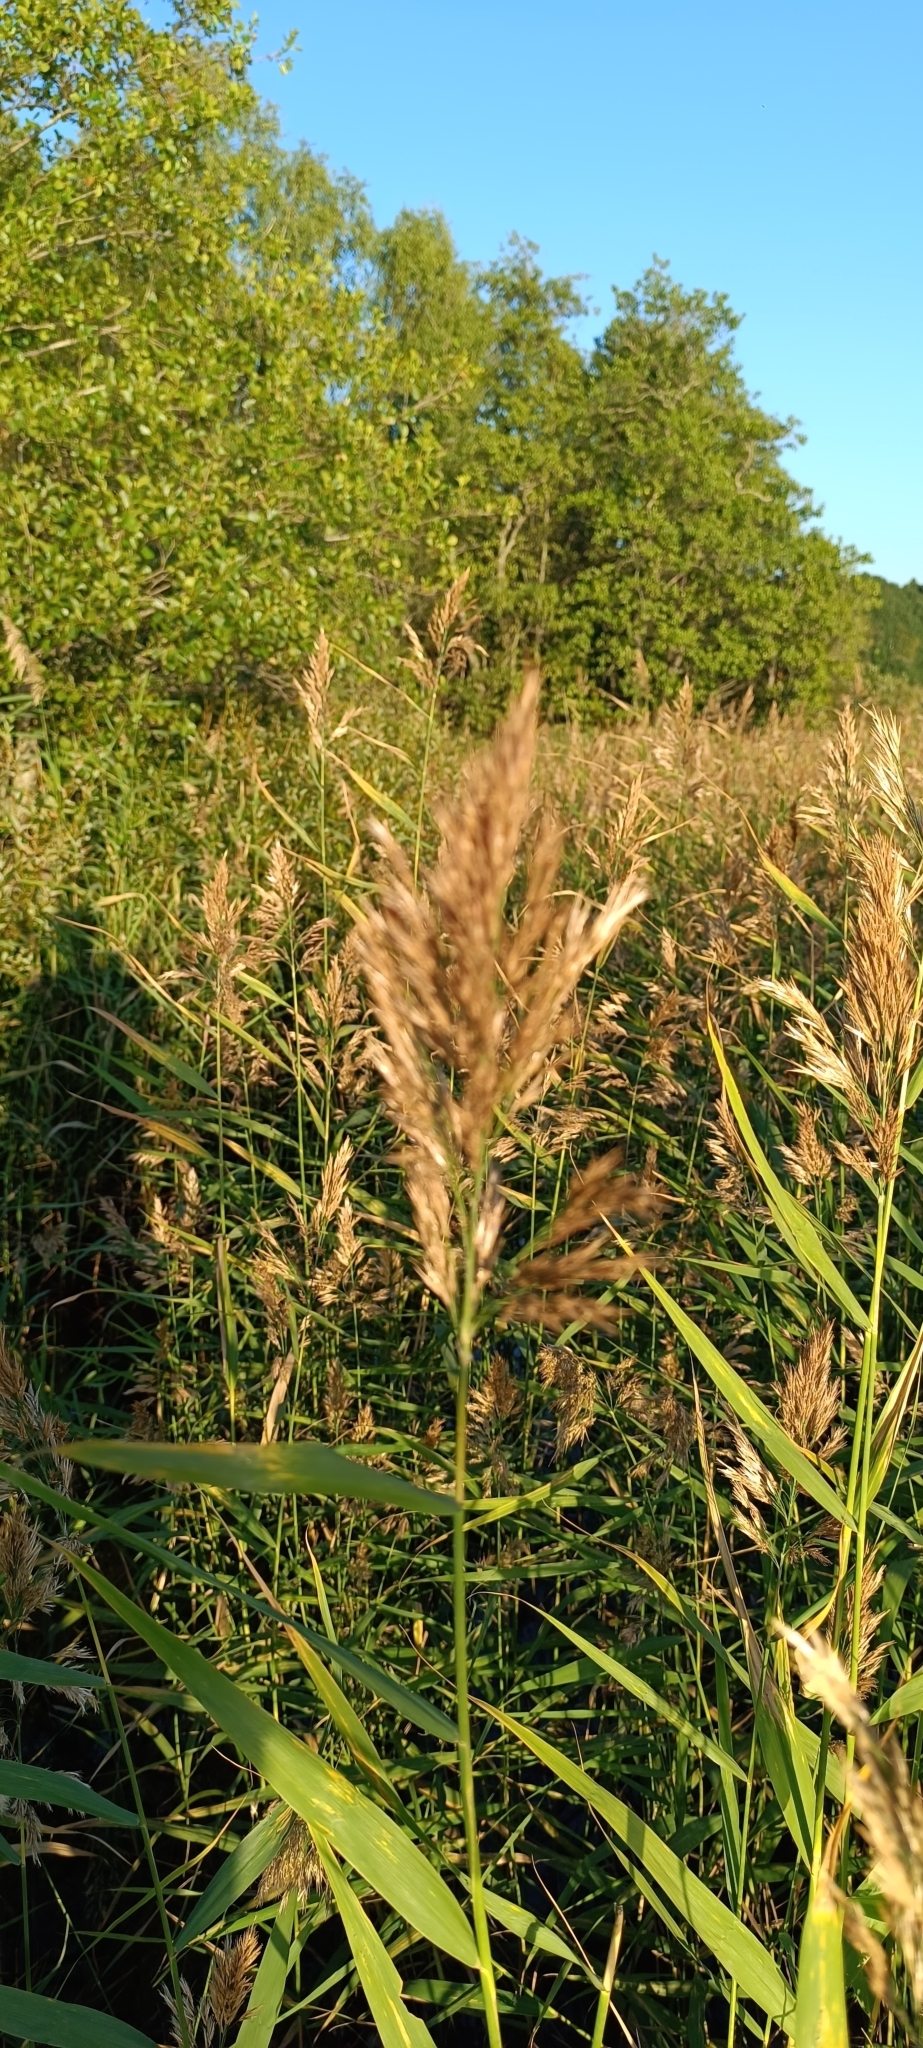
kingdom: Plantae
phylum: Tracheophyta
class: Liliopsida
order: Poales
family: Poaceae
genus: Phragmites
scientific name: Phragmites australis
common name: Common reed
